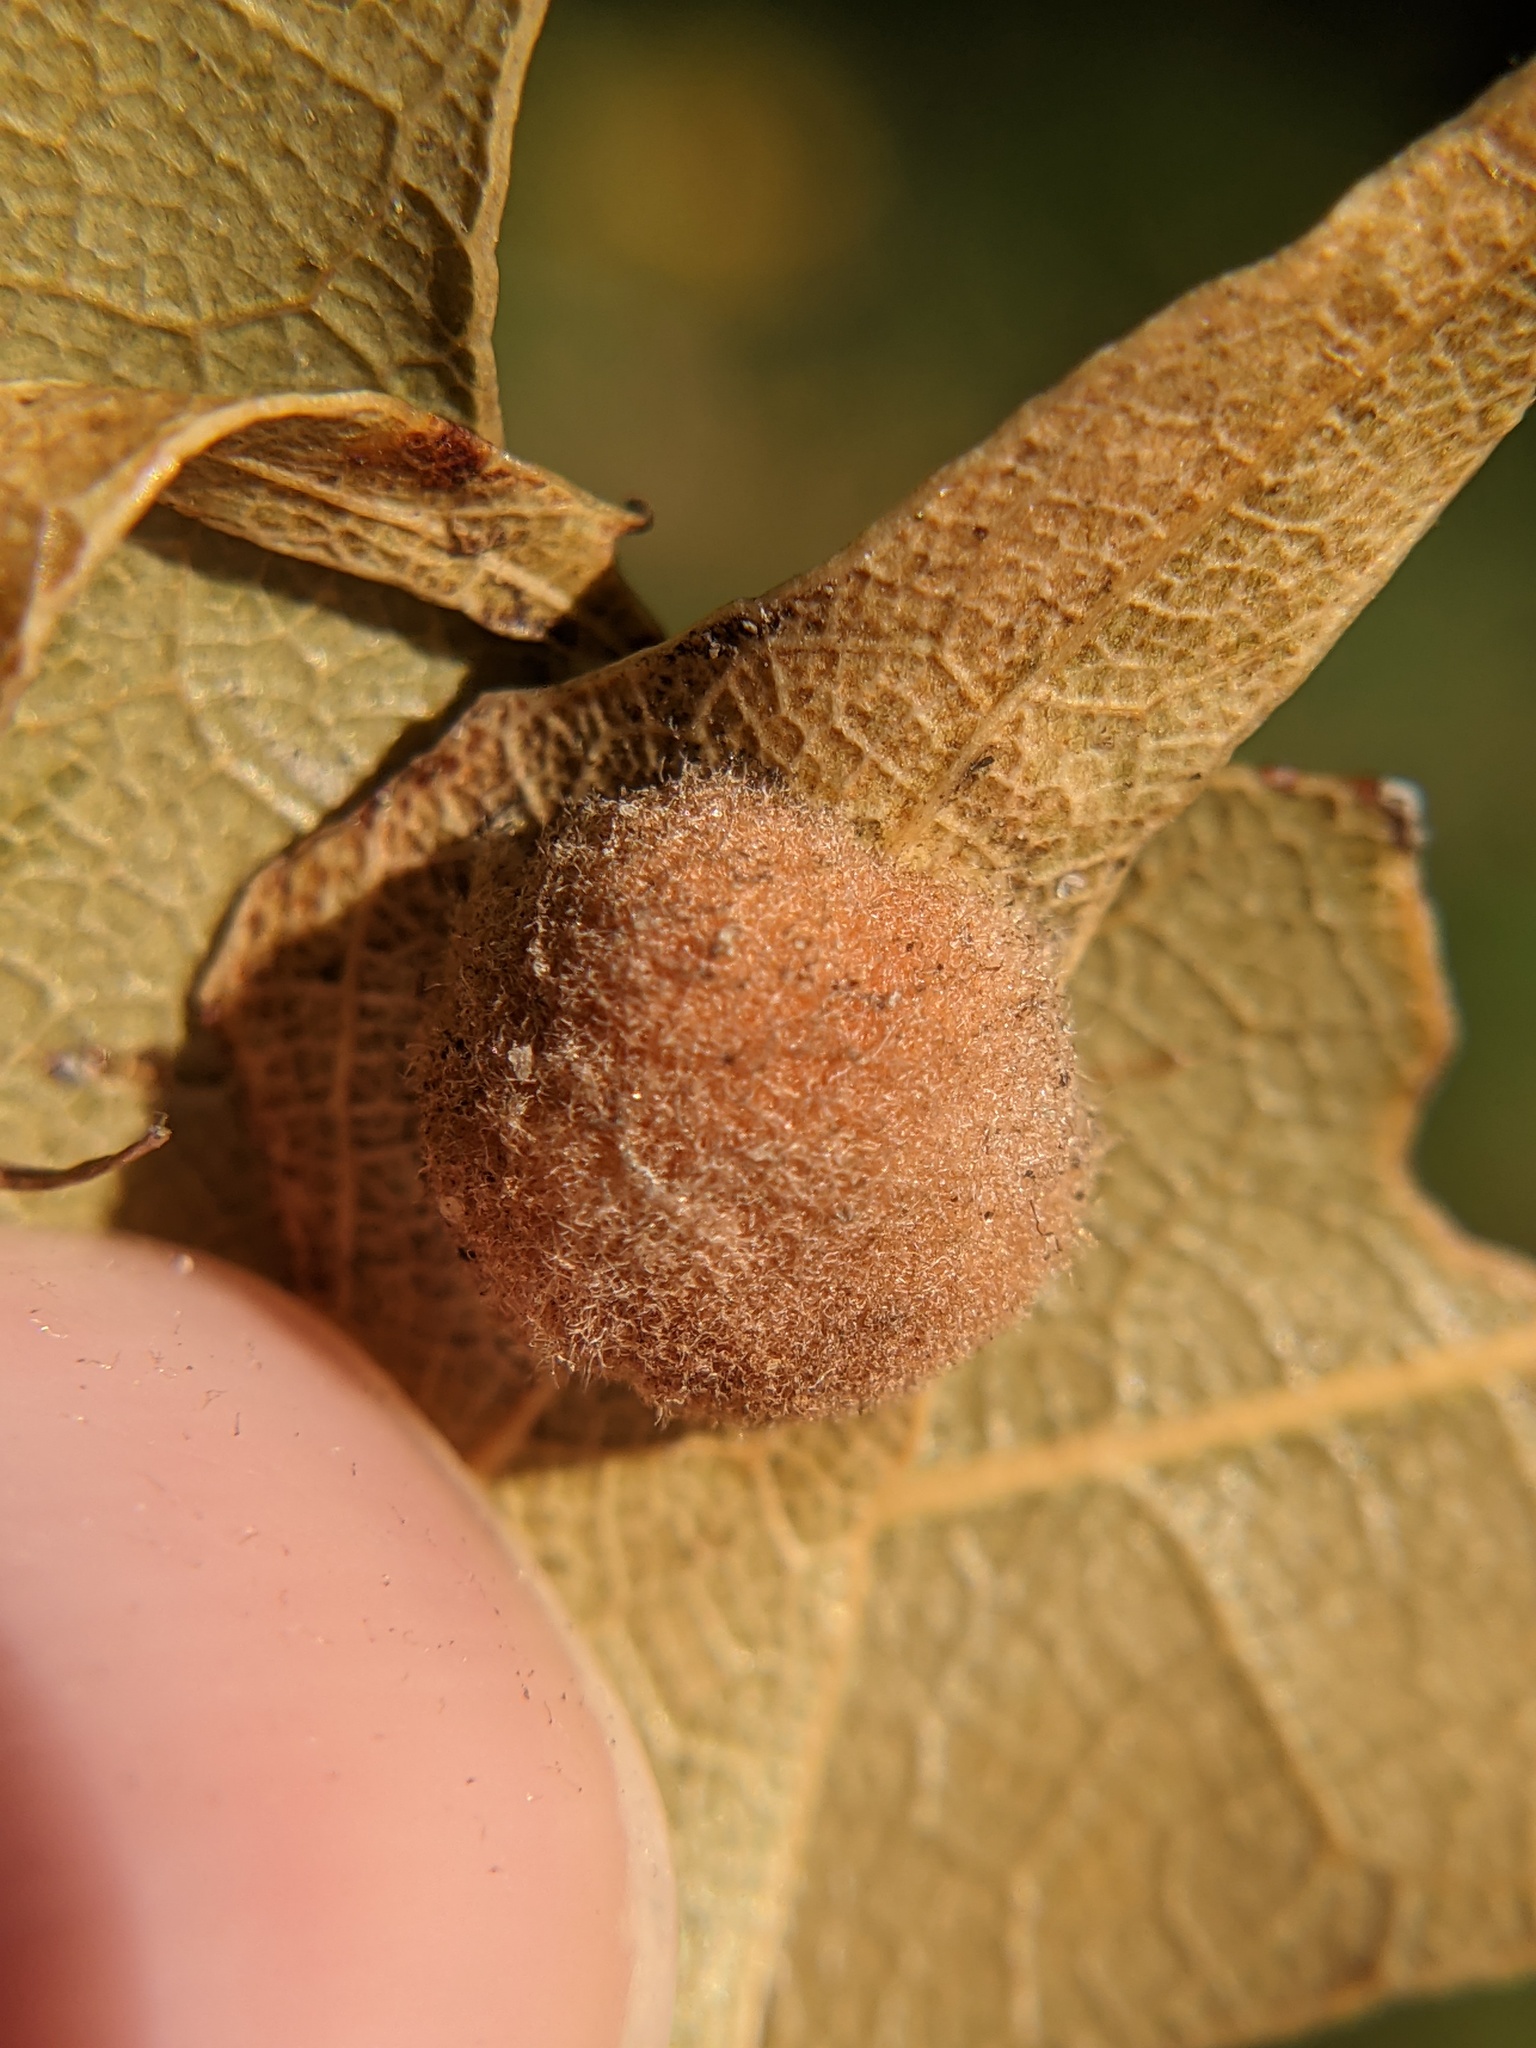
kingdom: Animalia
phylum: Arthropoda
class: Insecta
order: Hymenoptera
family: Cynipidae
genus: Callirhytis
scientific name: Callirhytis
